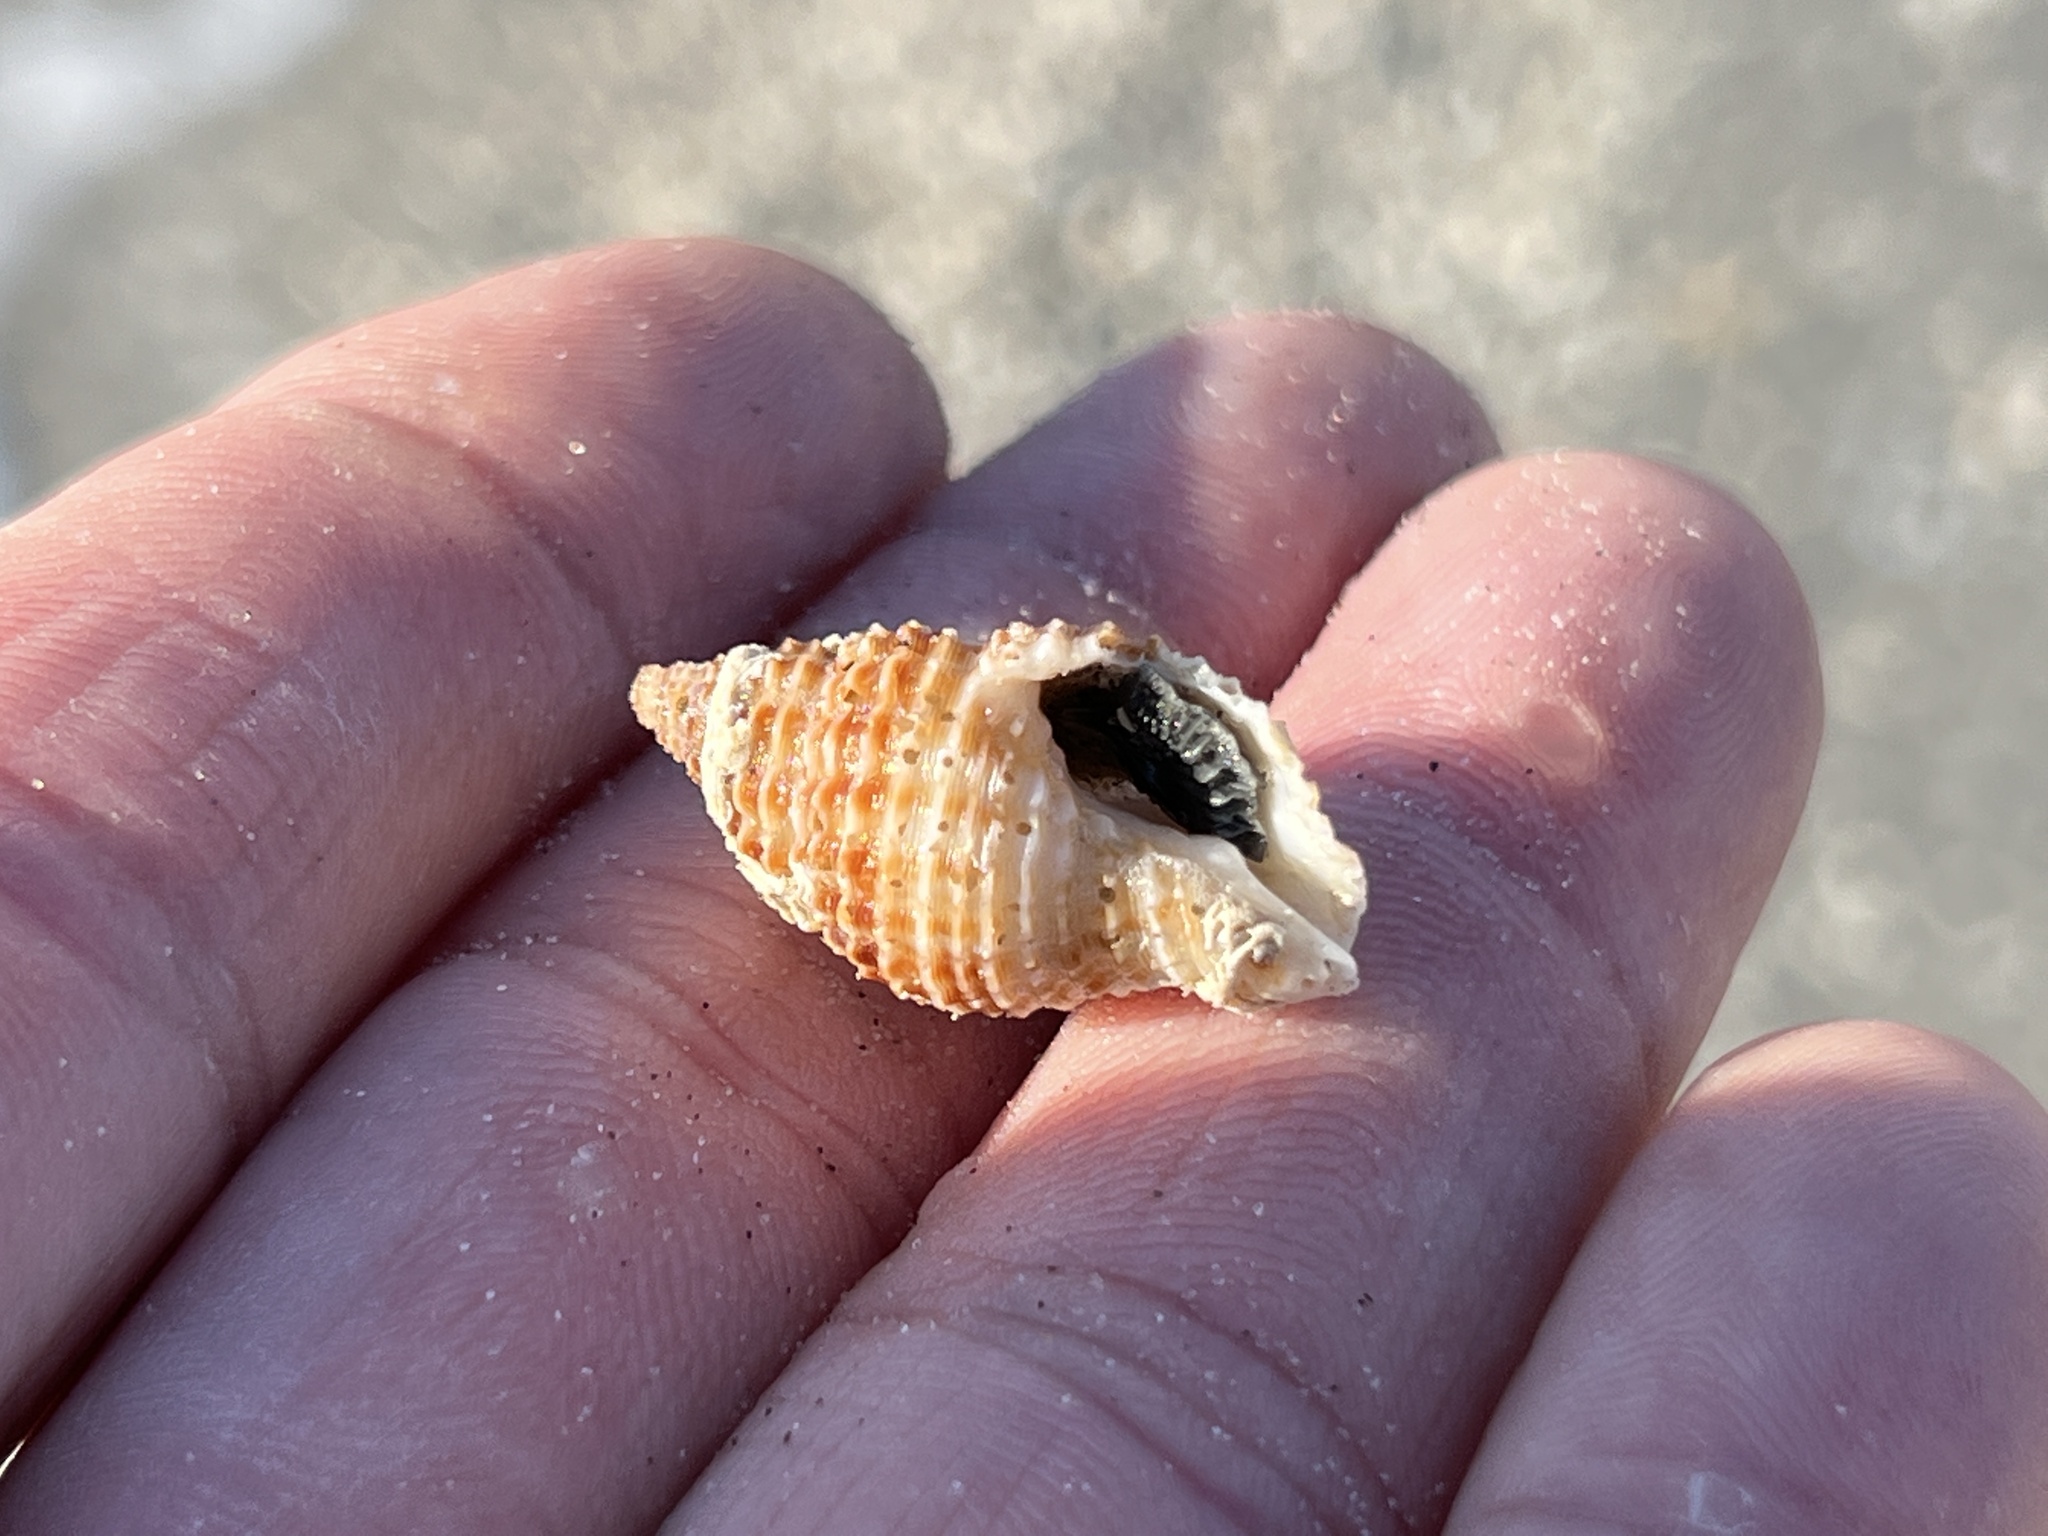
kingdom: Animalia
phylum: Mollusca
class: Gastropoda
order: Neogastropoda
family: Pisaniidae
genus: Solenosteira
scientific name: Solenosteira cancellaria
